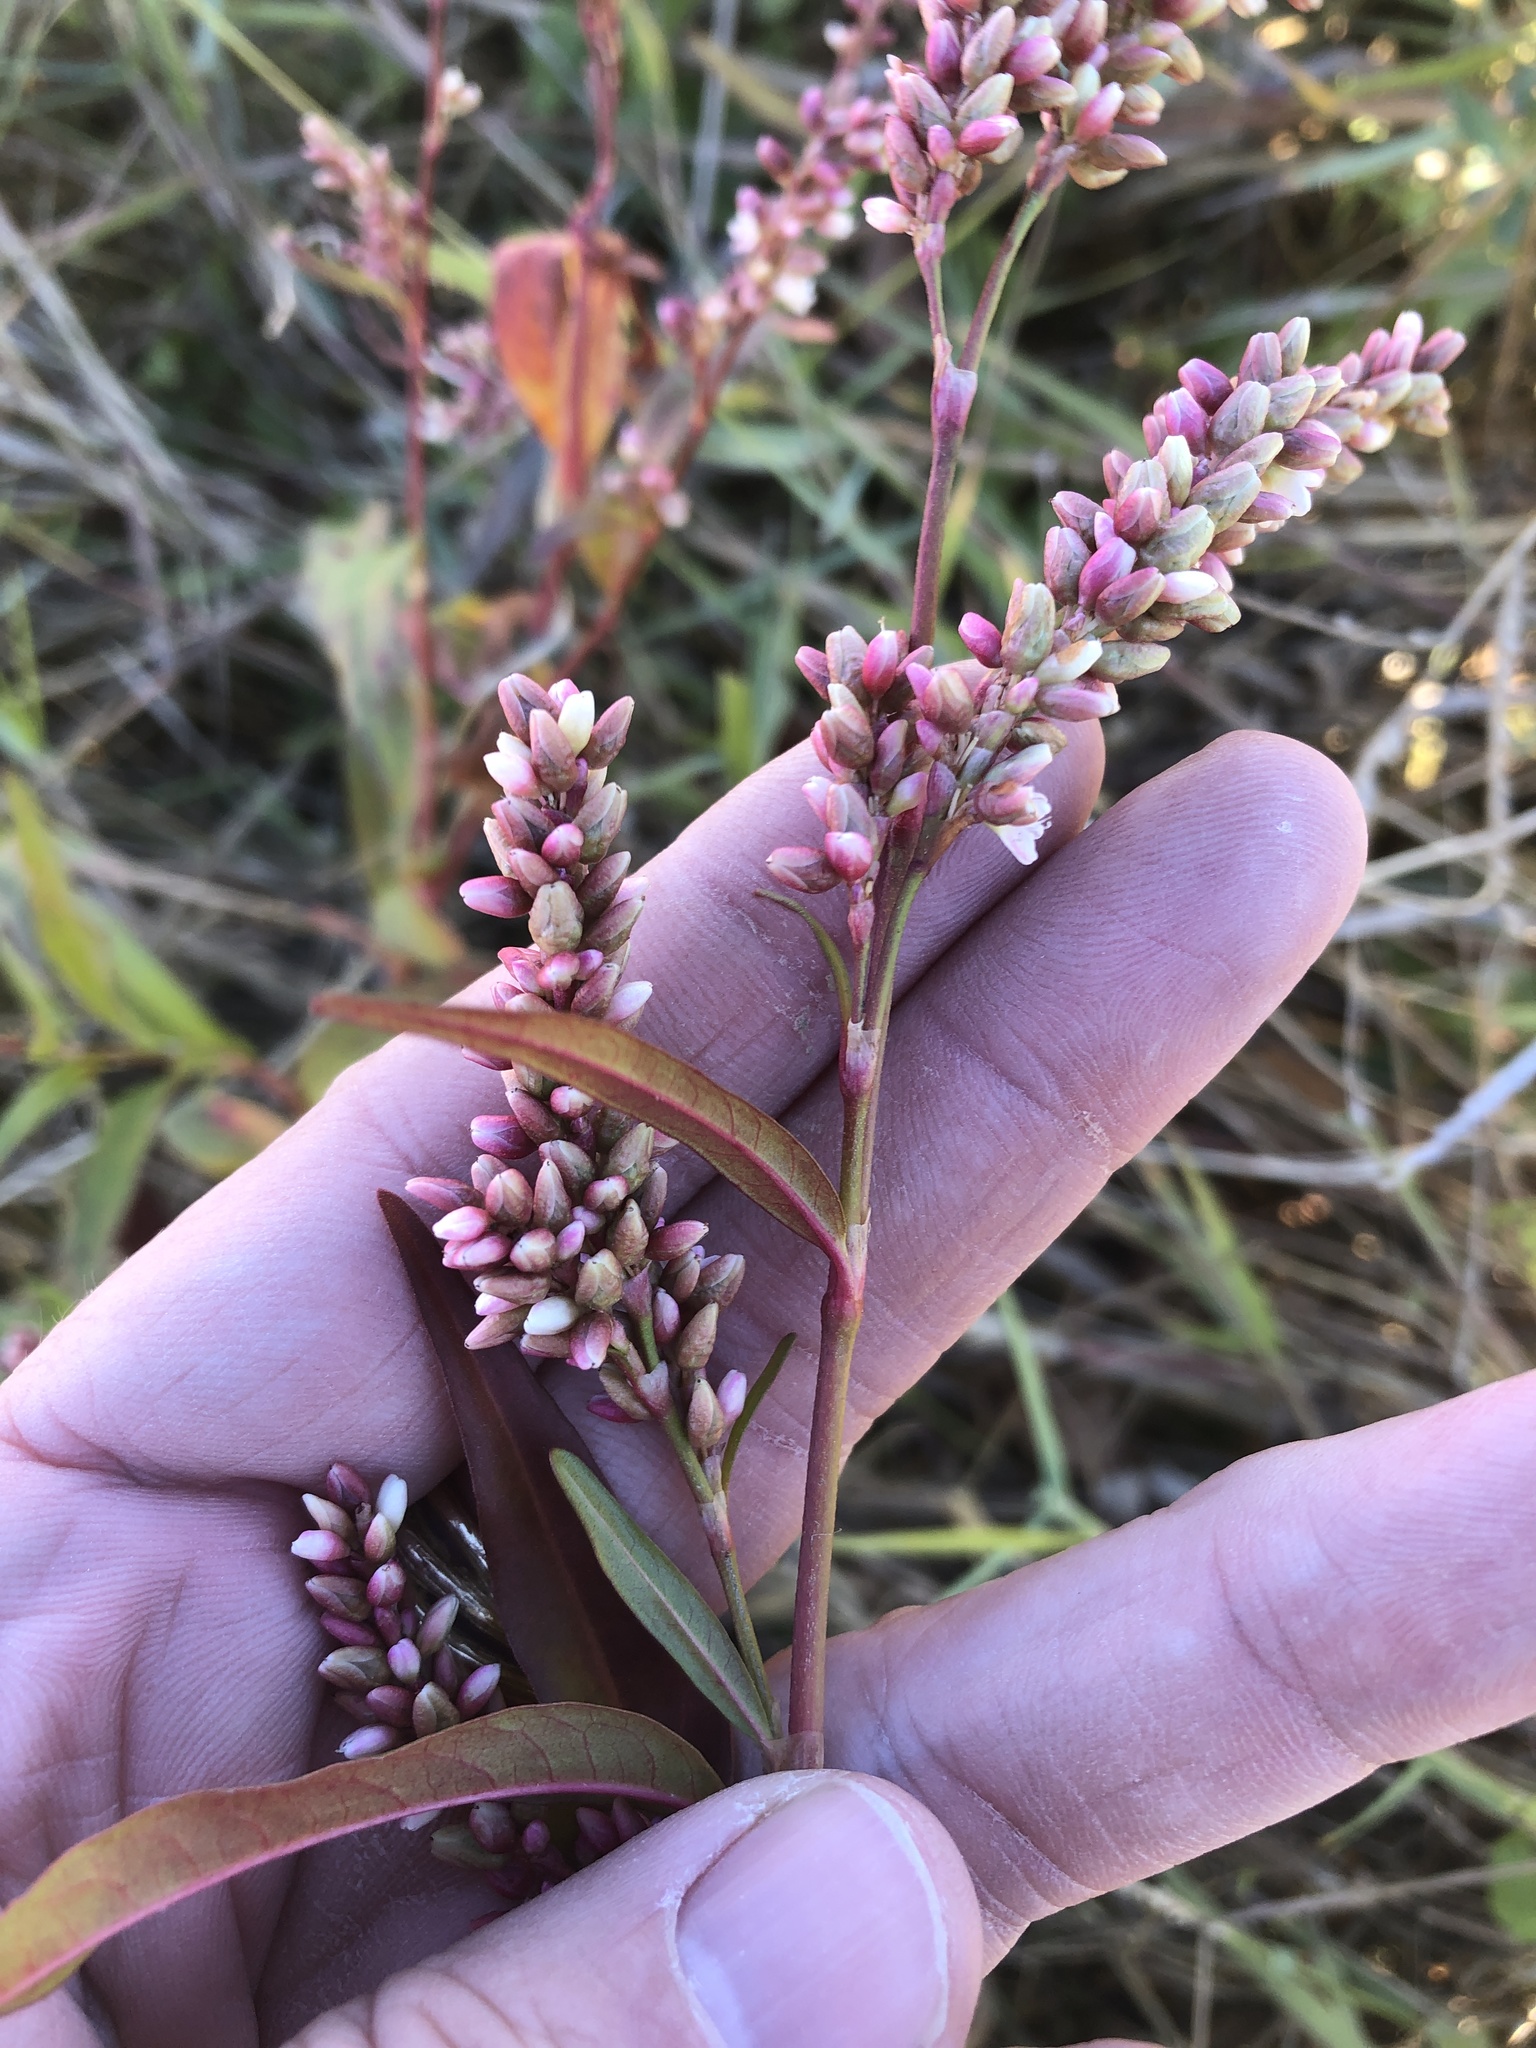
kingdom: Plantae
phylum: Tracheophyta
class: Magnoliopsida
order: Caryophyllales
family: Polygonaceae
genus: Persicaria
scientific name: Persicaria pensylvanica
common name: Pinkweed
